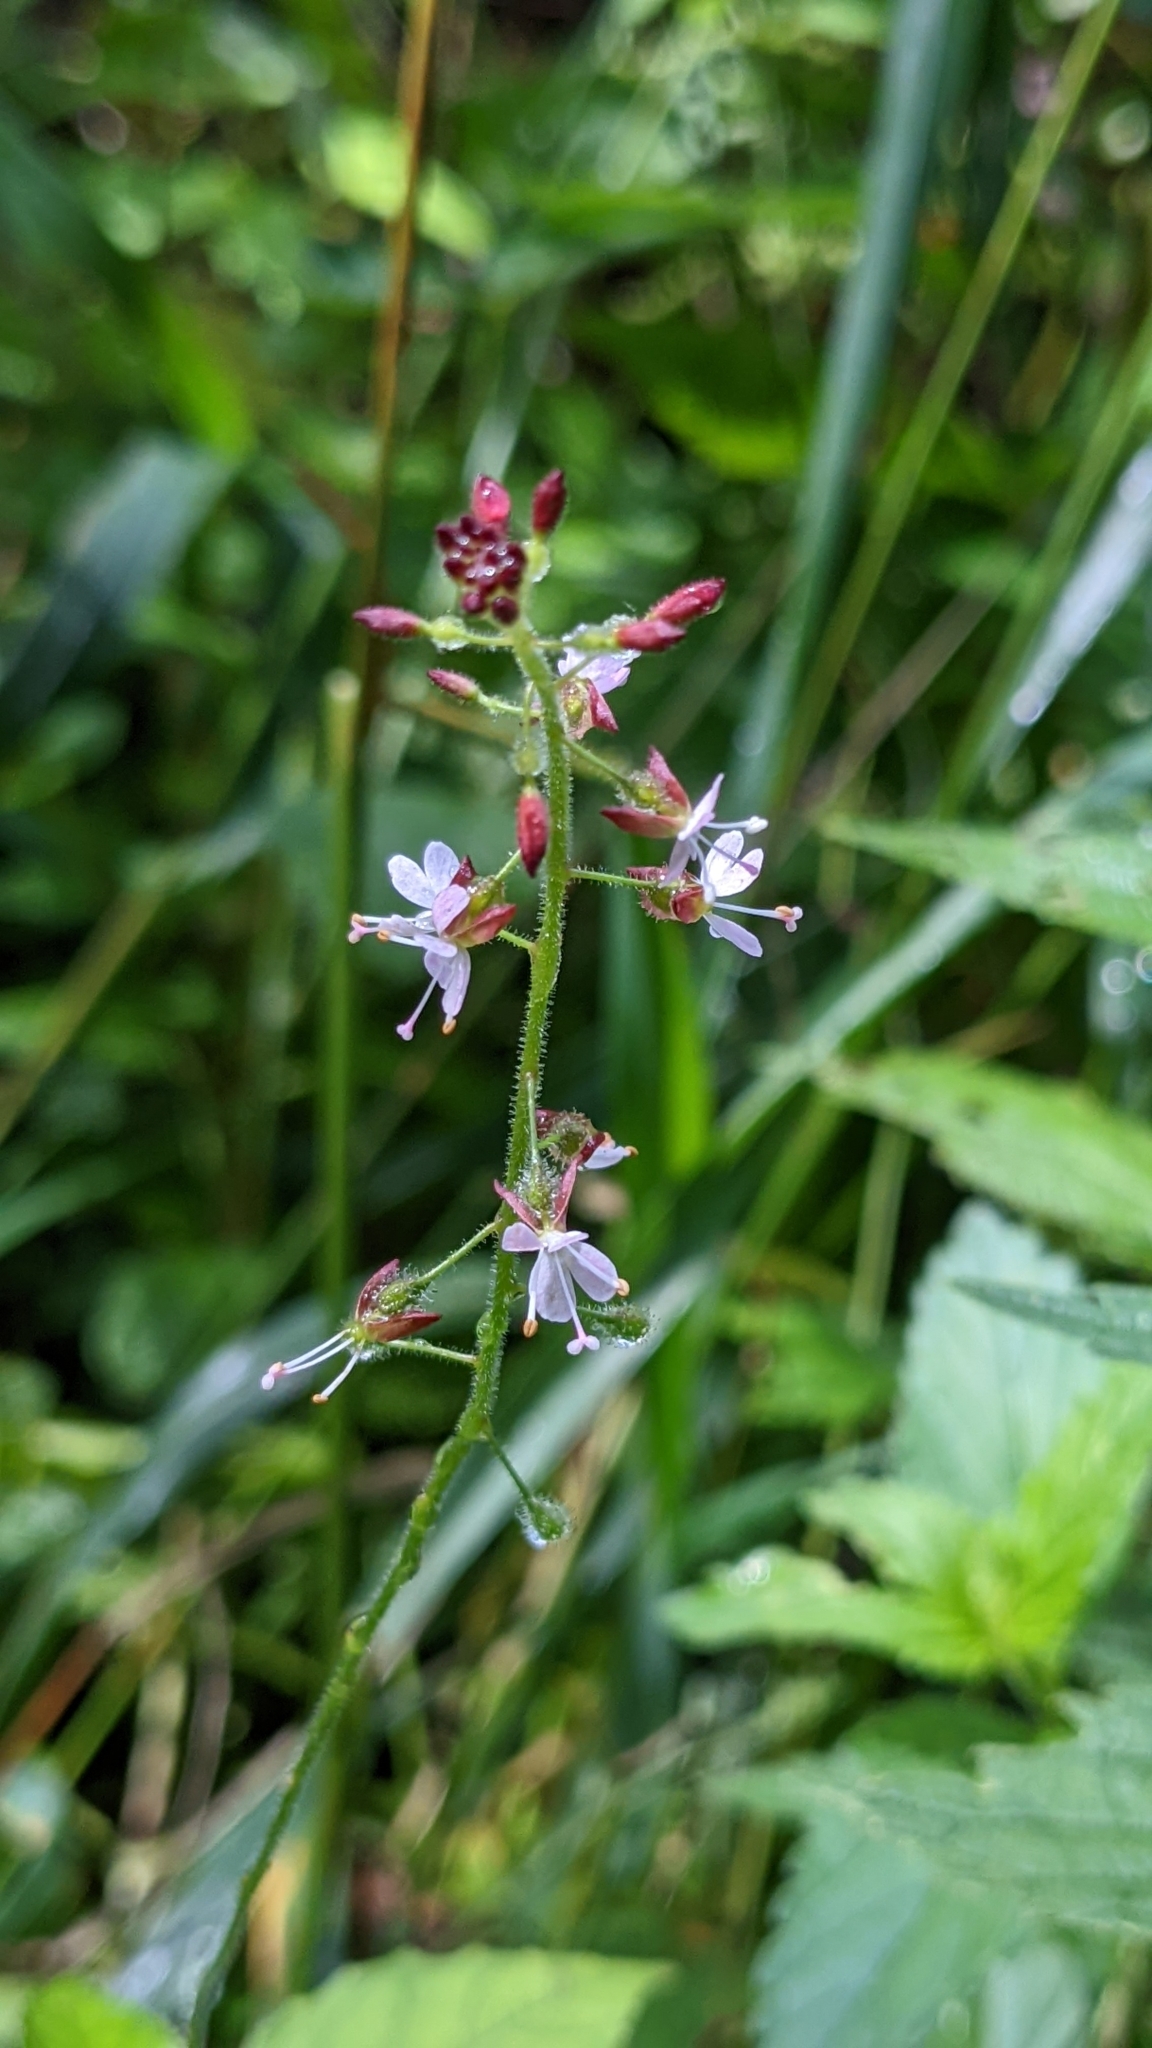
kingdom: Plantae
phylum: Tracheophyta
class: Magnoliopsida
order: Myrtales
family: Onagraceae
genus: Circaea
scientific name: Circaea lutetiana
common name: Enchanter's-nightshade
